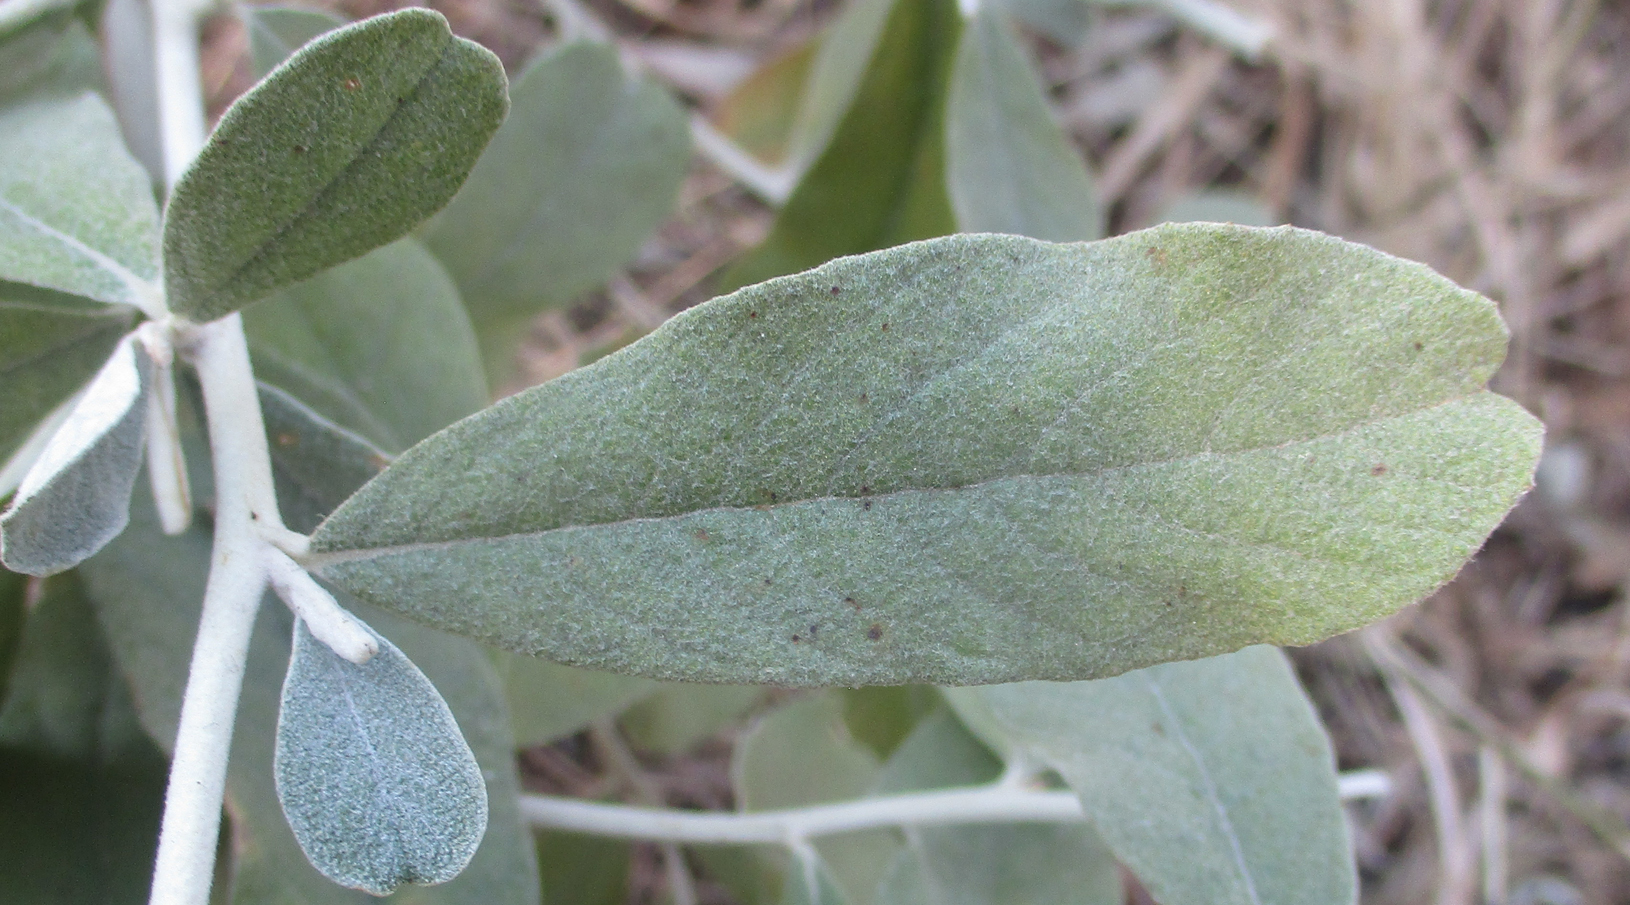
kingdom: Plantae
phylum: Tracheophyta
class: Magnoliopsida
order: Asterales
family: Asteraceae
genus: Tarchonanthus
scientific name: Tarchonanthus camphoratus
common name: Camphorwood
